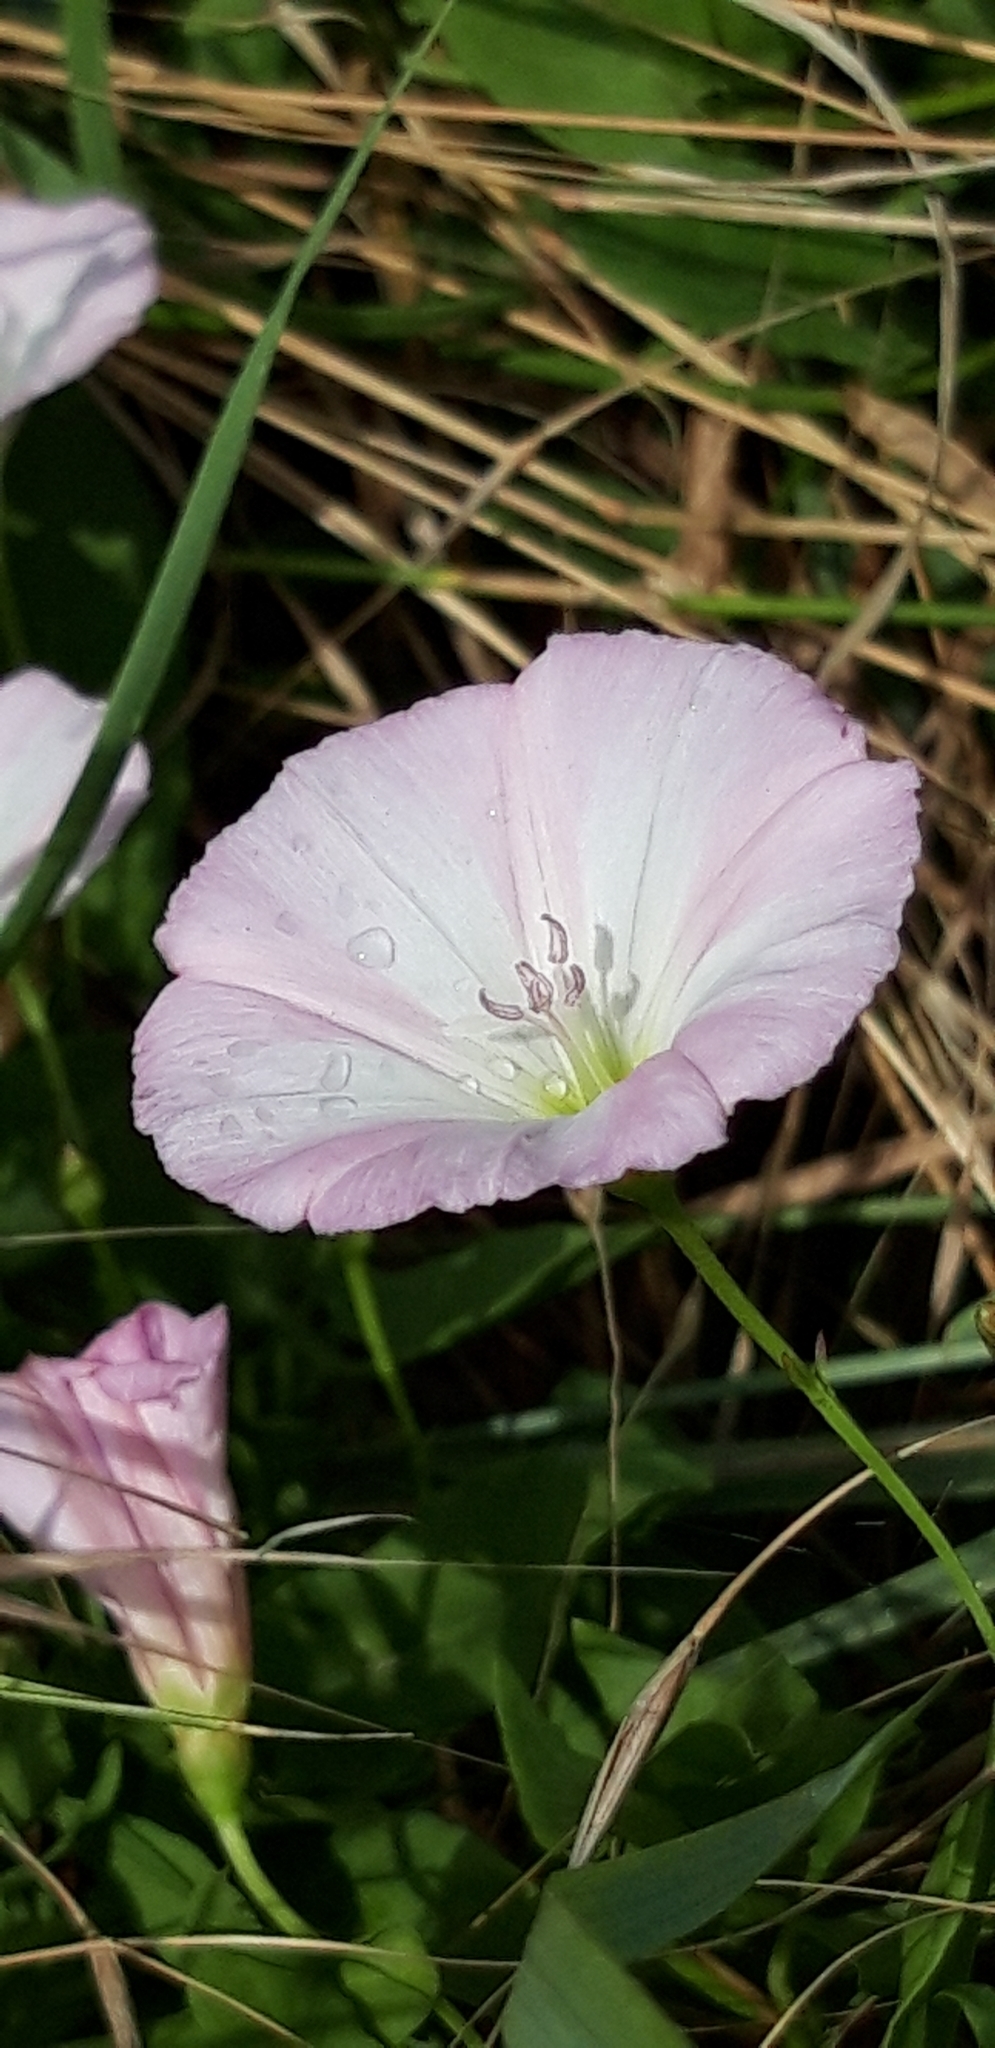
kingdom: Plantae
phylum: Tracheophyta
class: Magnoliopsida
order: Solanales
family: Convolvulaceae
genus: Convolvulus
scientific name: Convolvulus arvensis
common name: Field bindweed
